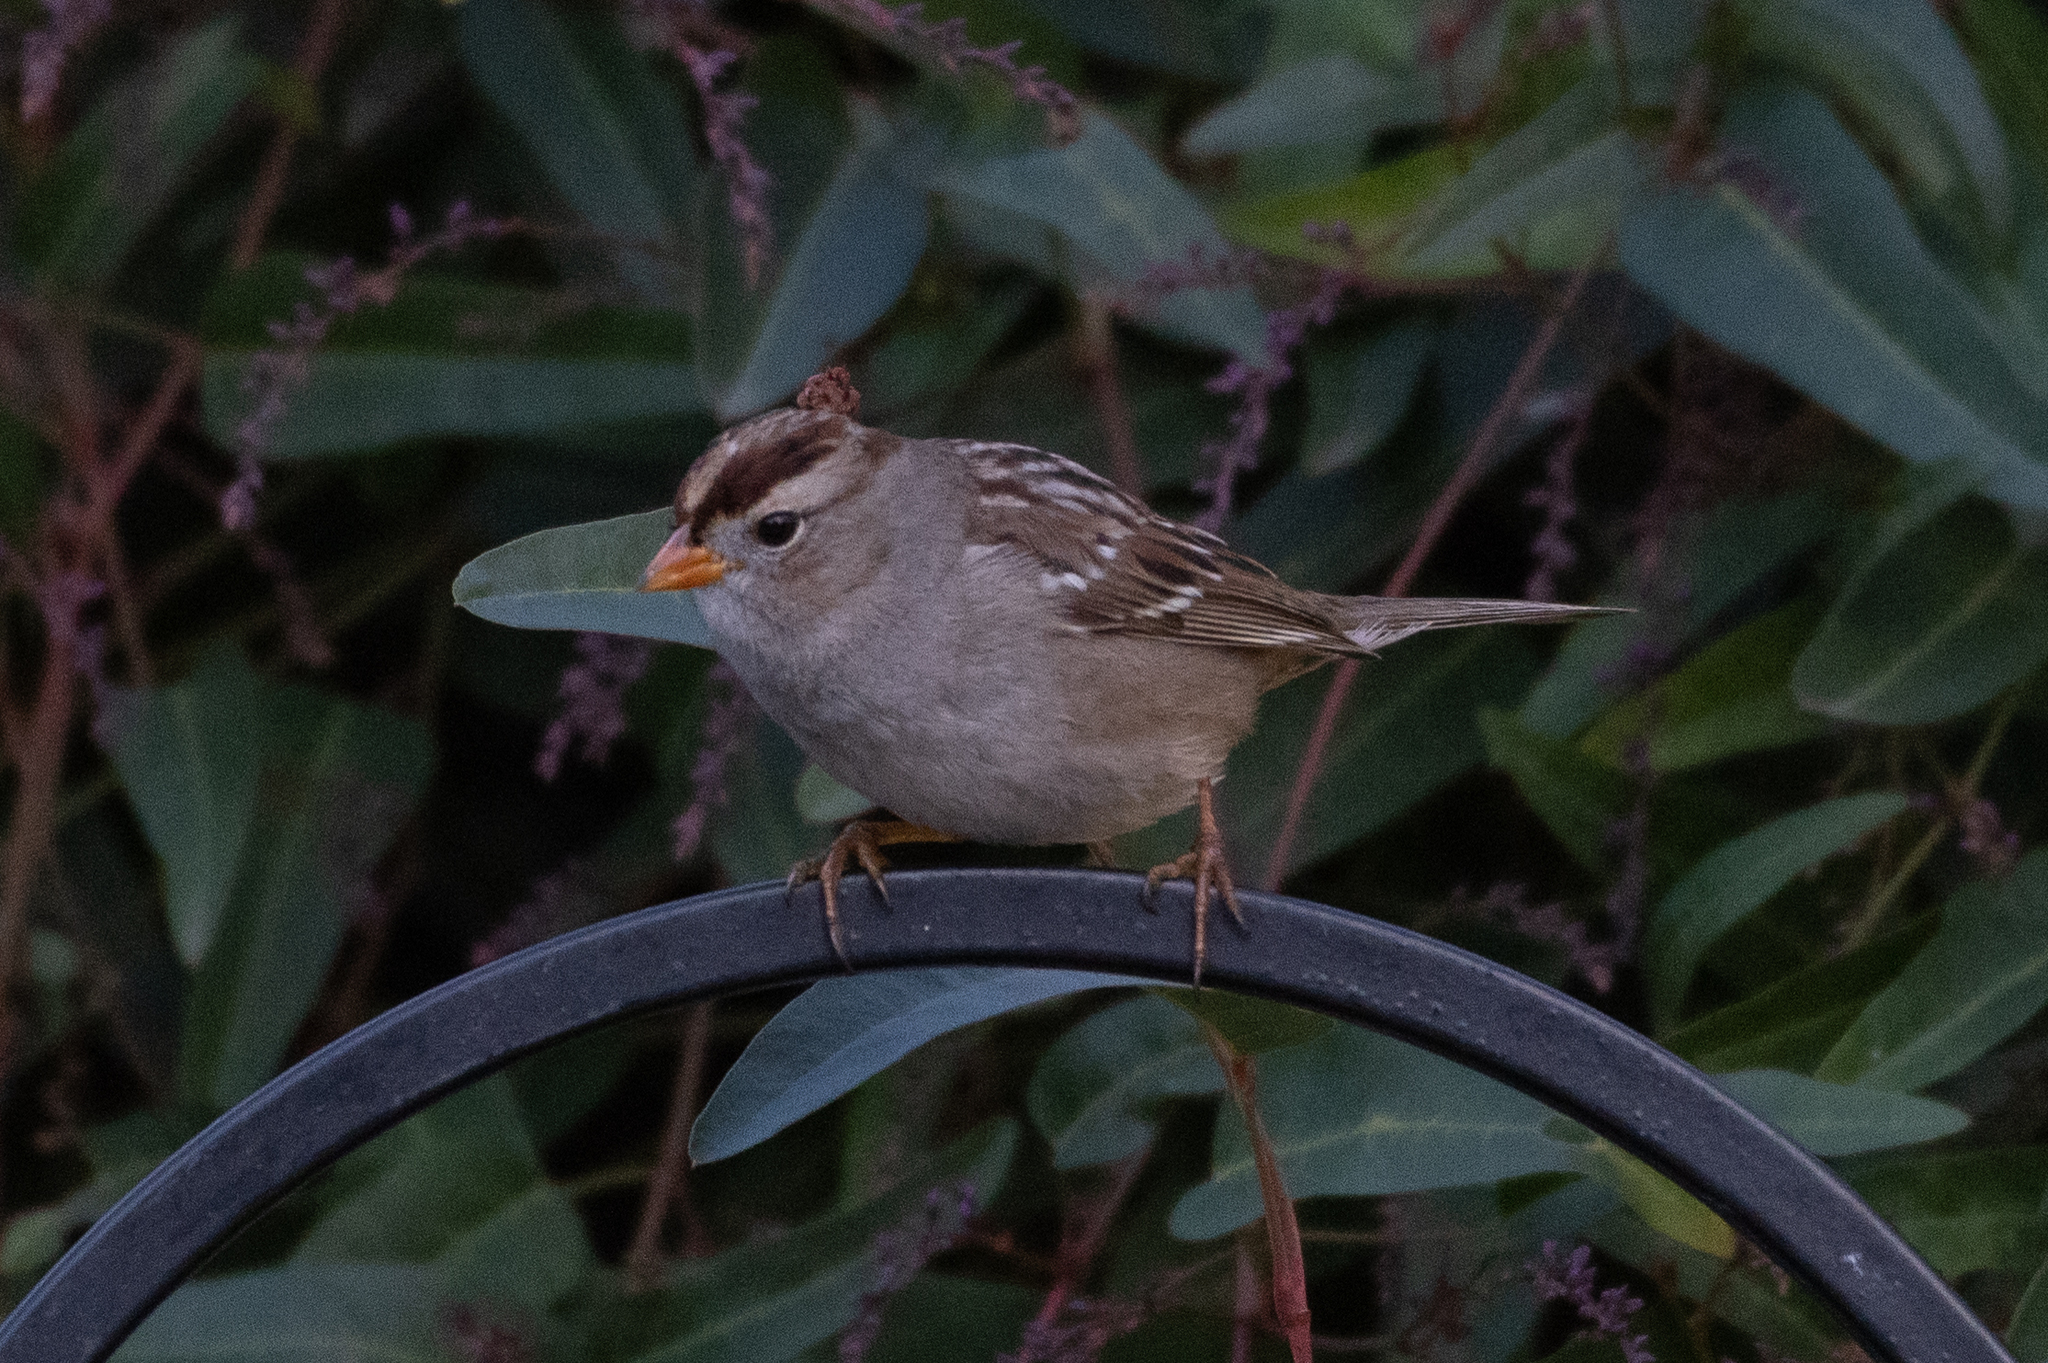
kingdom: Animalia
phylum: Chordata
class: Aves
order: Passeriformes
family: Passerellidae
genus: Zonotrichia
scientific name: Zonotrichia leucophrys
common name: White-crowned sparrow
